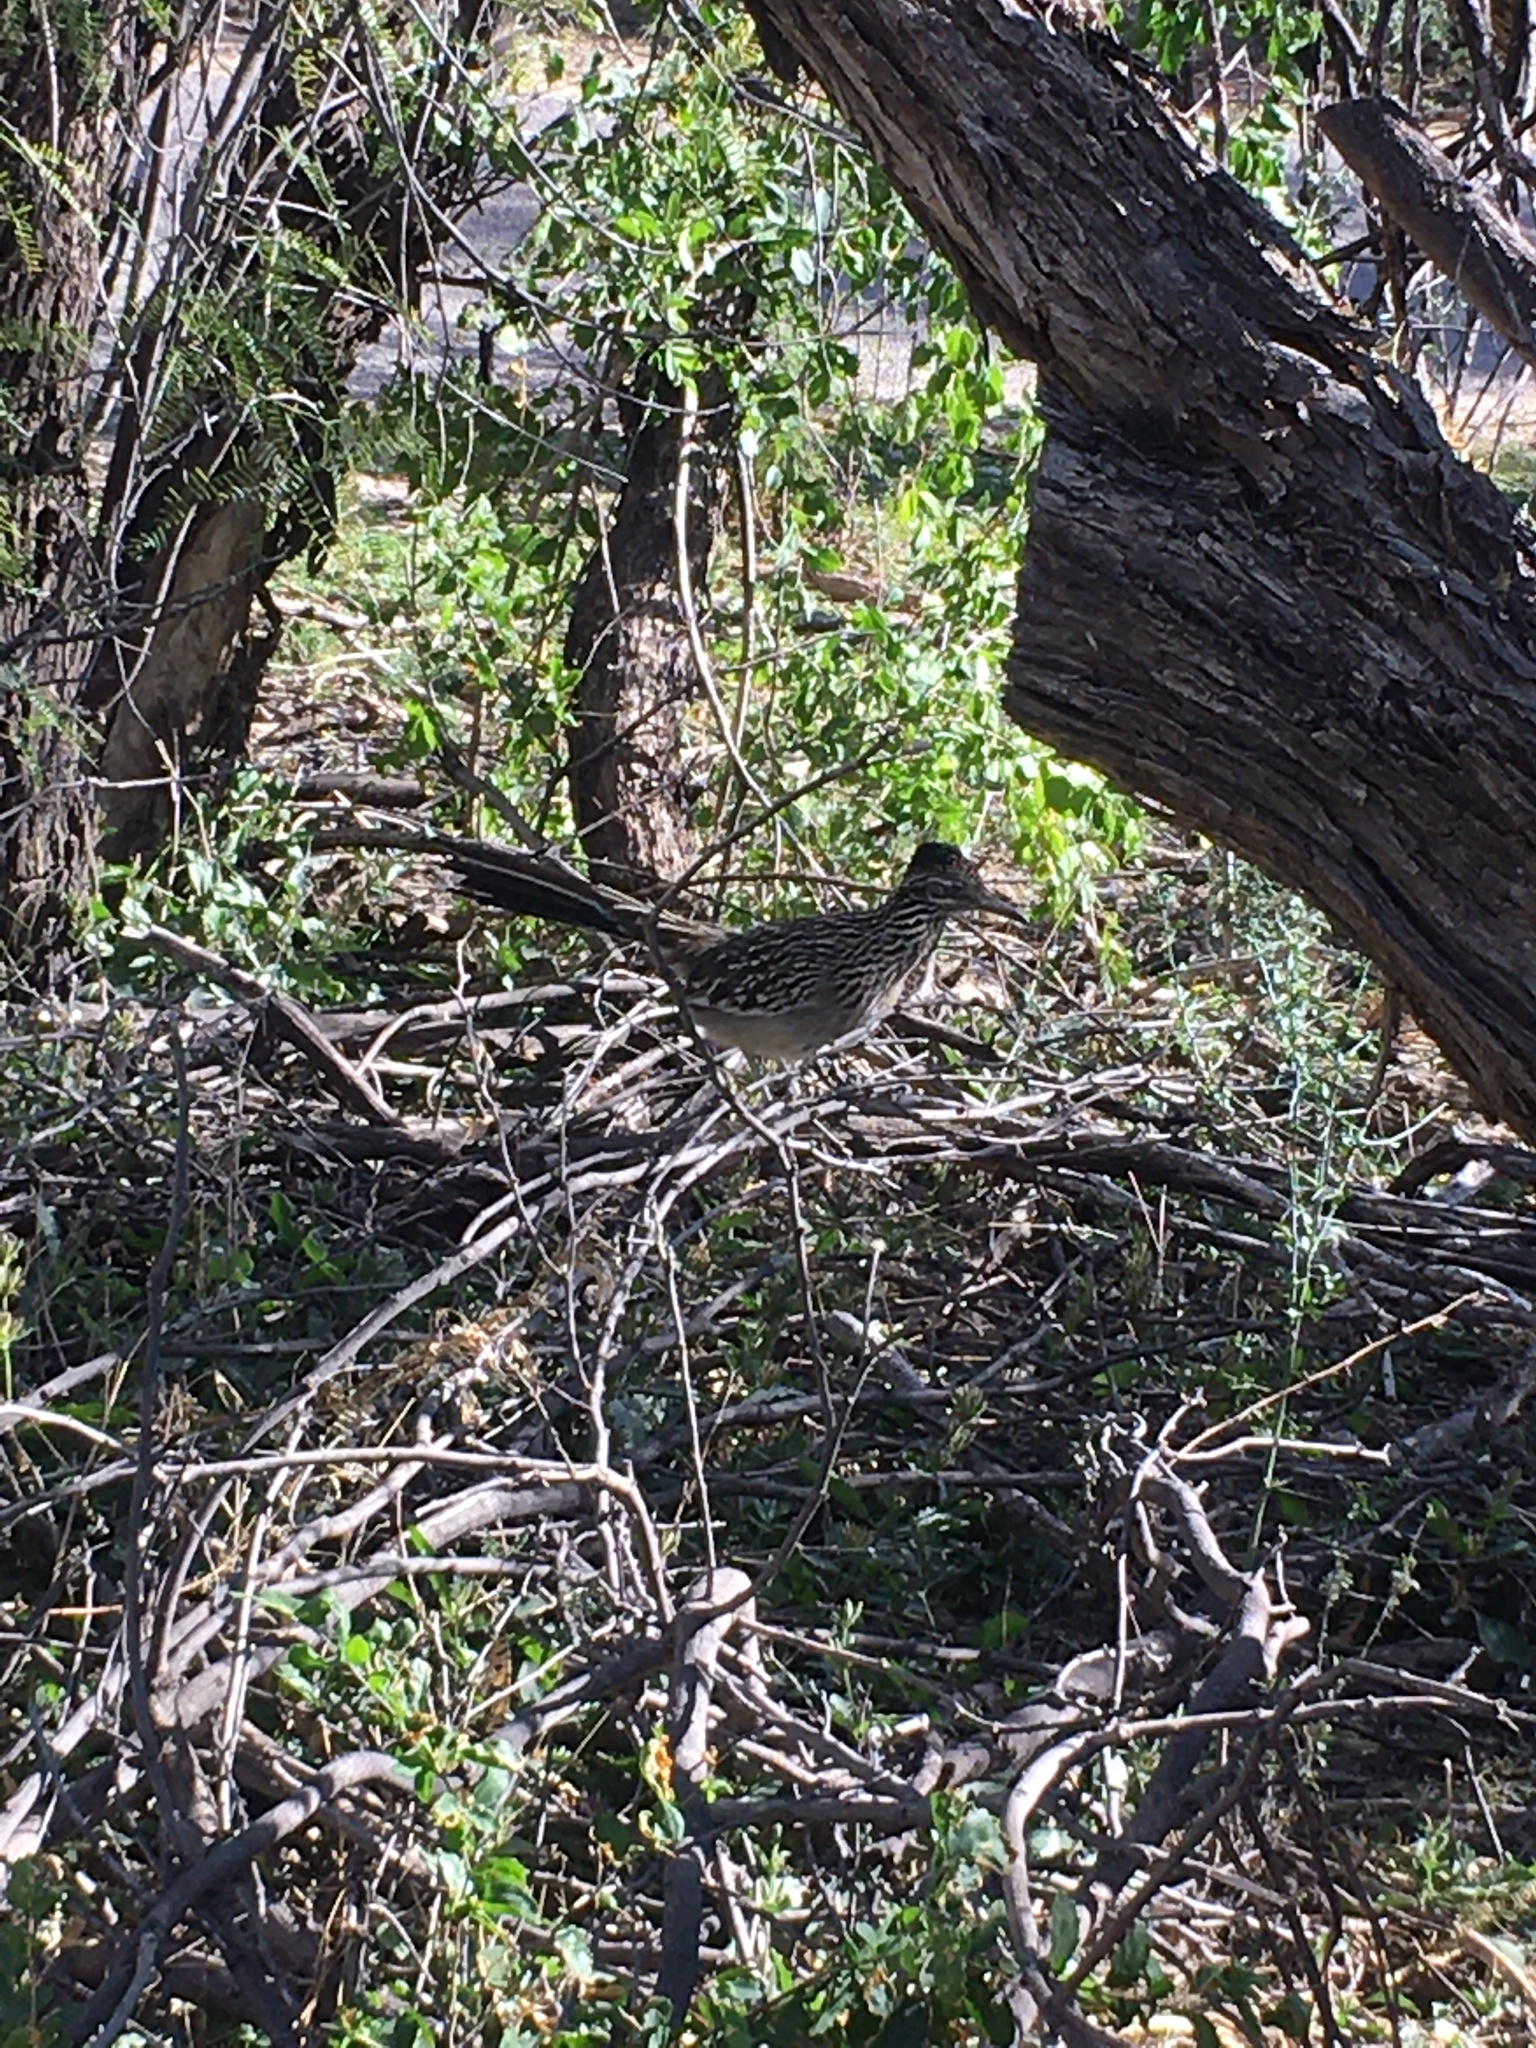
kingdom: Animalia
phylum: Chordata
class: Aves
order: Cuculiformes
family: Cuculidae
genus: Geococcyx
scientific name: Geococcyx californianus
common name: Greater roadrunner
